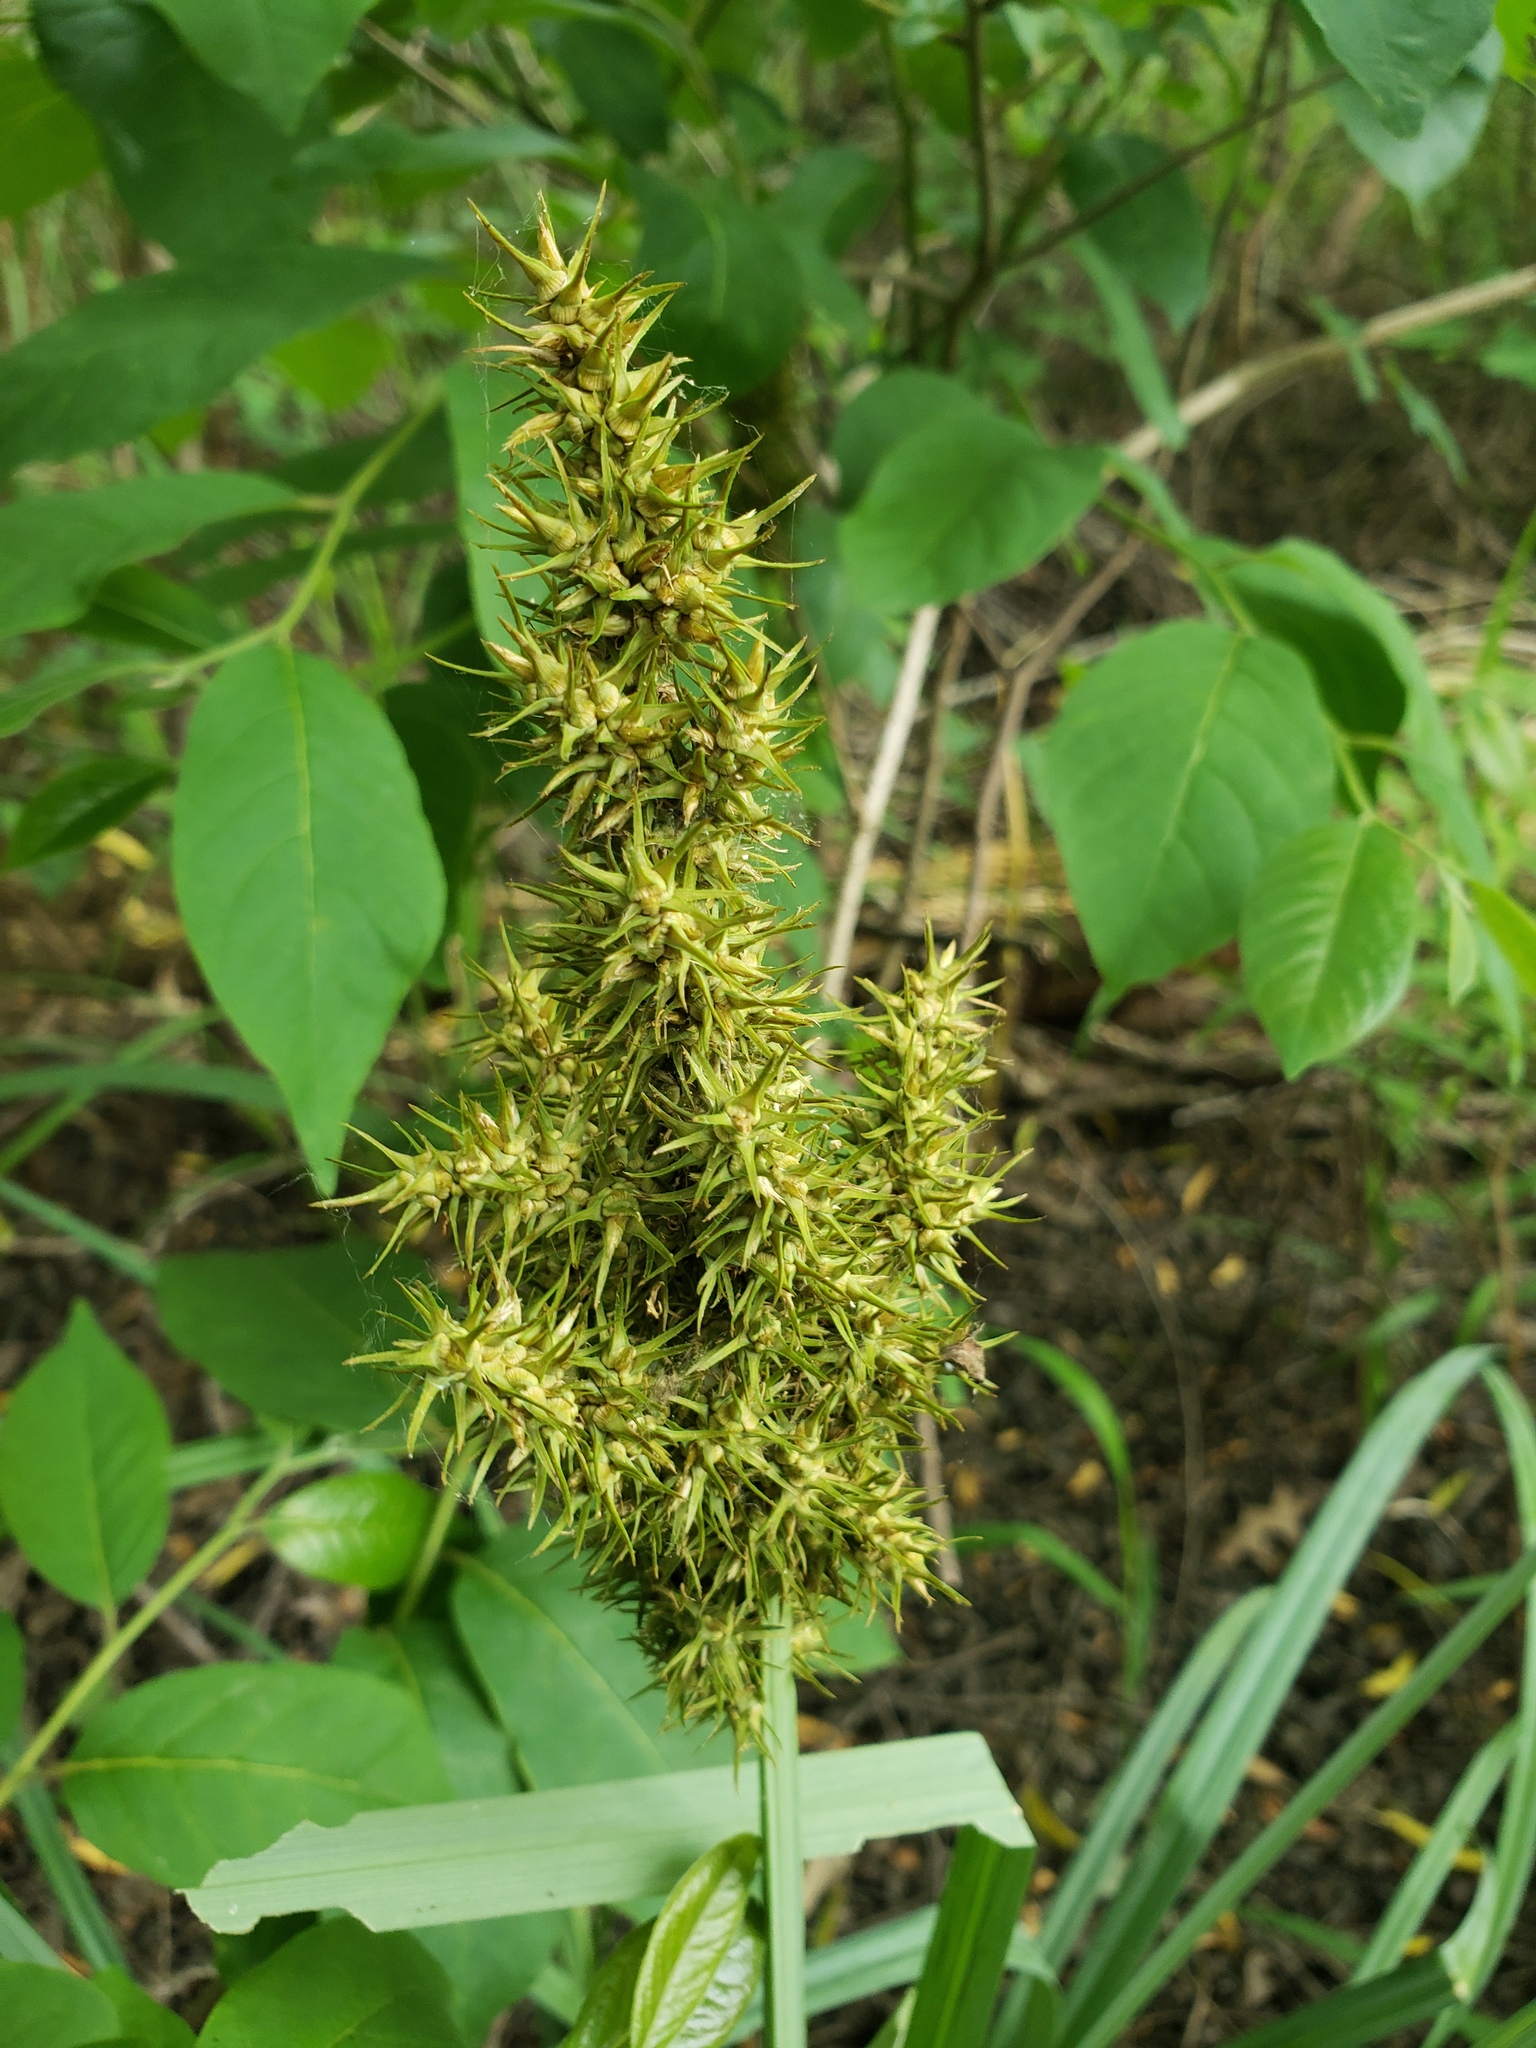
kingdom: Plantae
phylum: Tracheophyta
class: Liliopsida
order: Poales
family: Cyperaceae
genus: Carex
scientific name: Carex crus-corvi
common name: Crow-spur sedge
